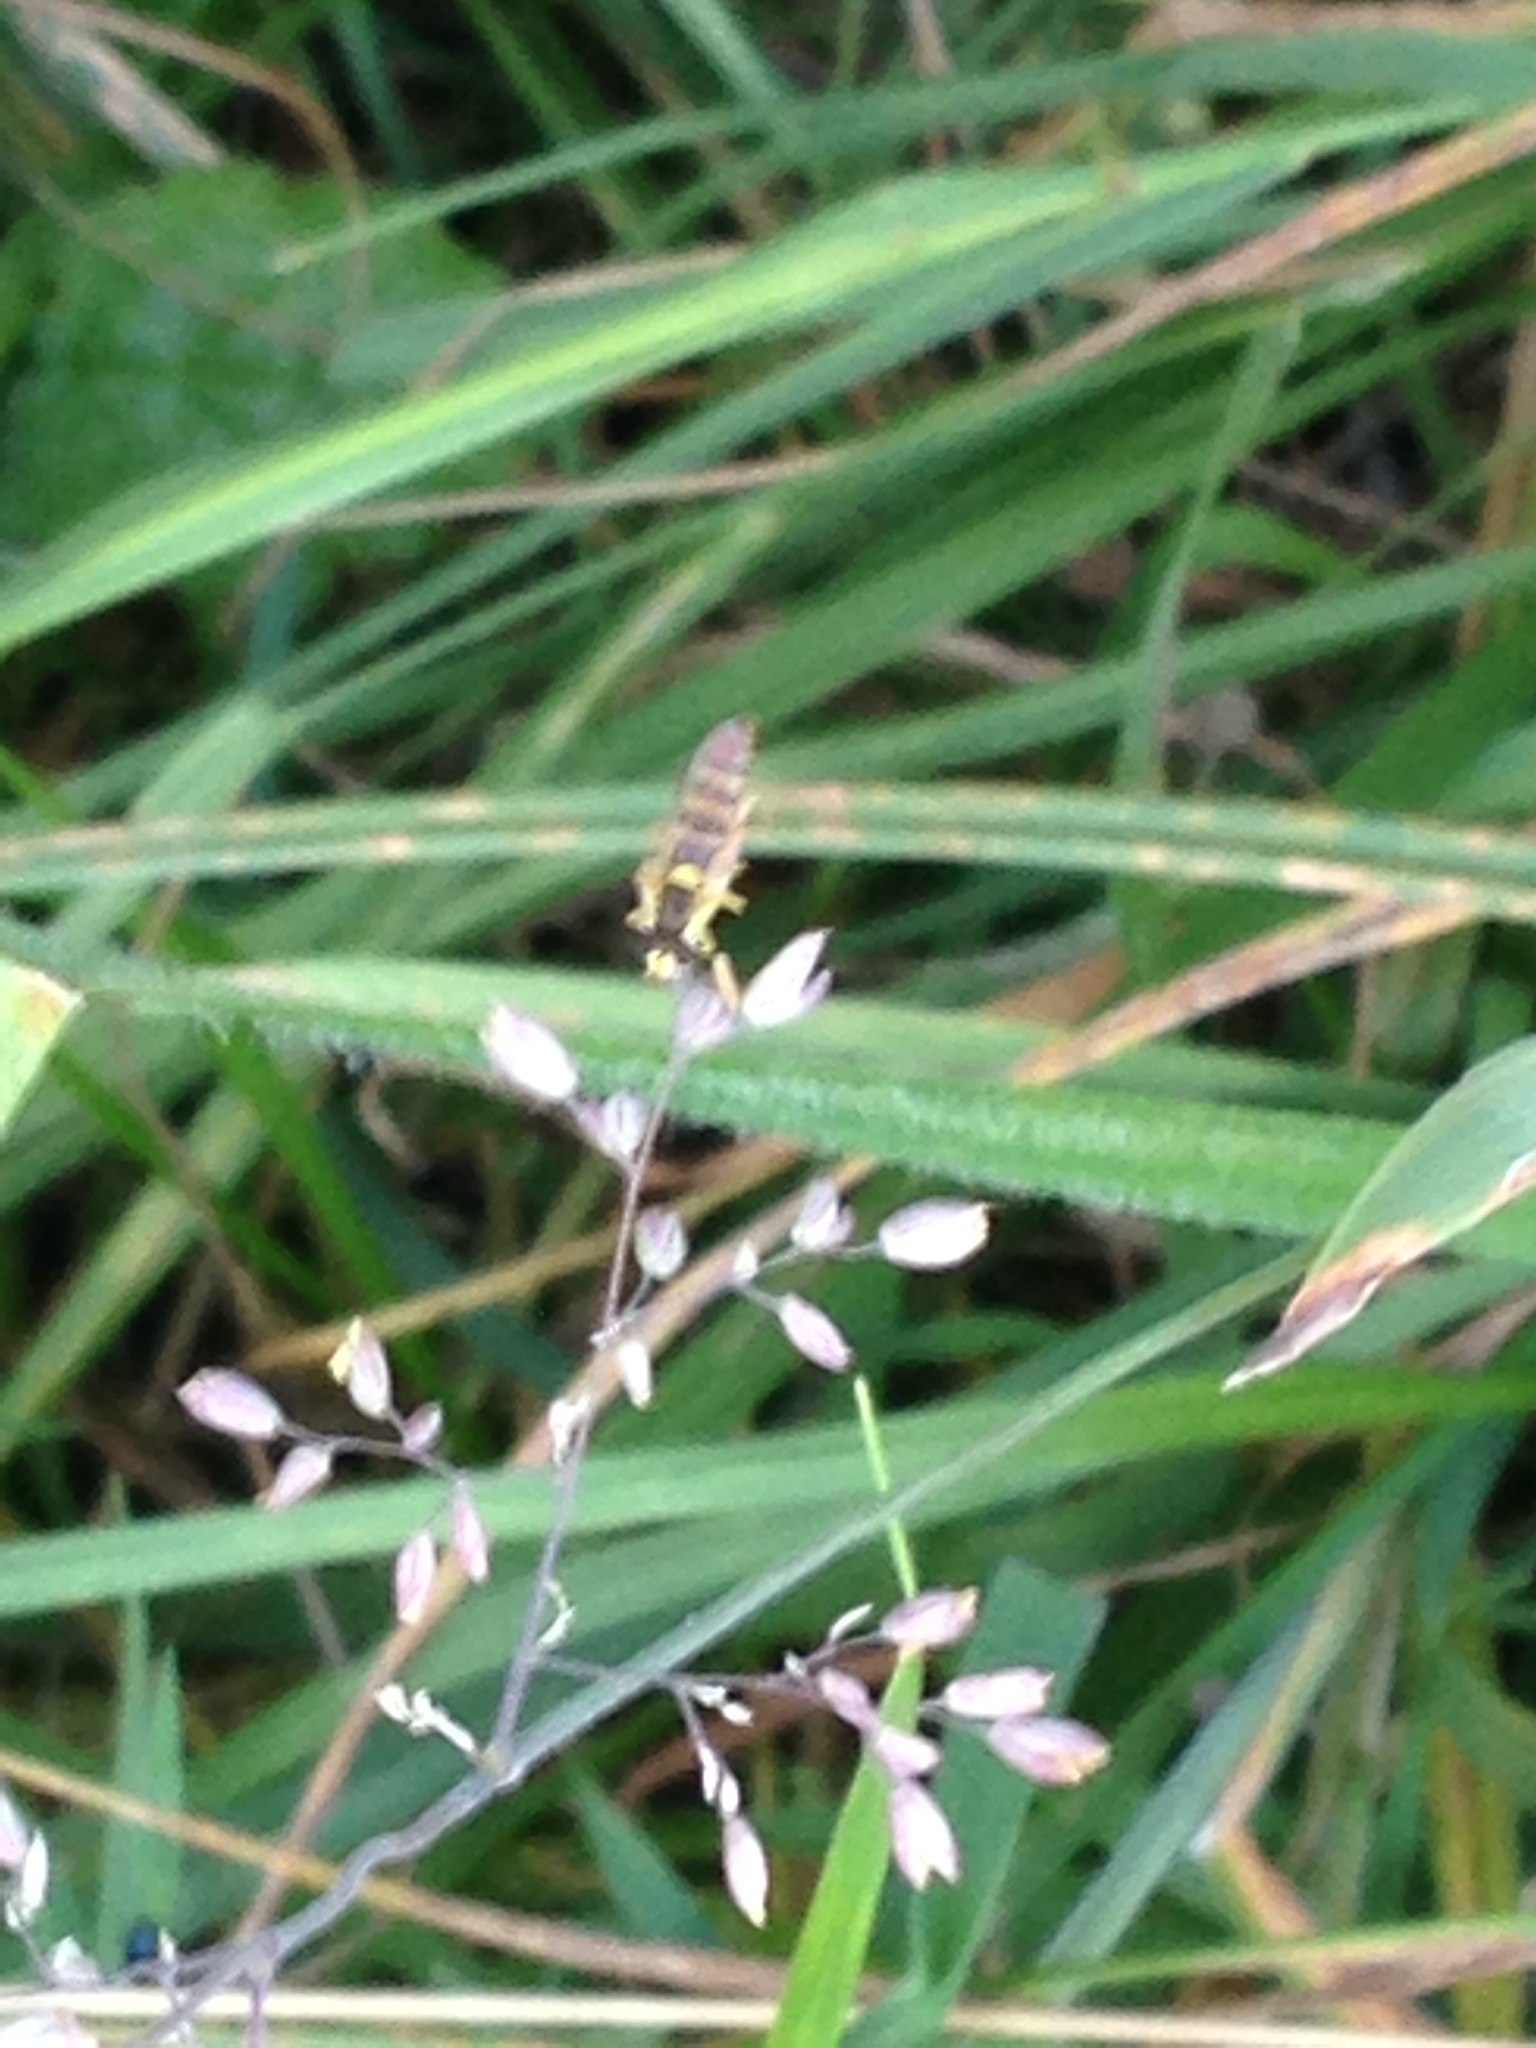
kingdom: Animalia
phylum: Arthropoda
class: Insecta
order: Diptera
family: Syrphidae
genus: Sphaerophoria
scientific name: Sphaerophoria
